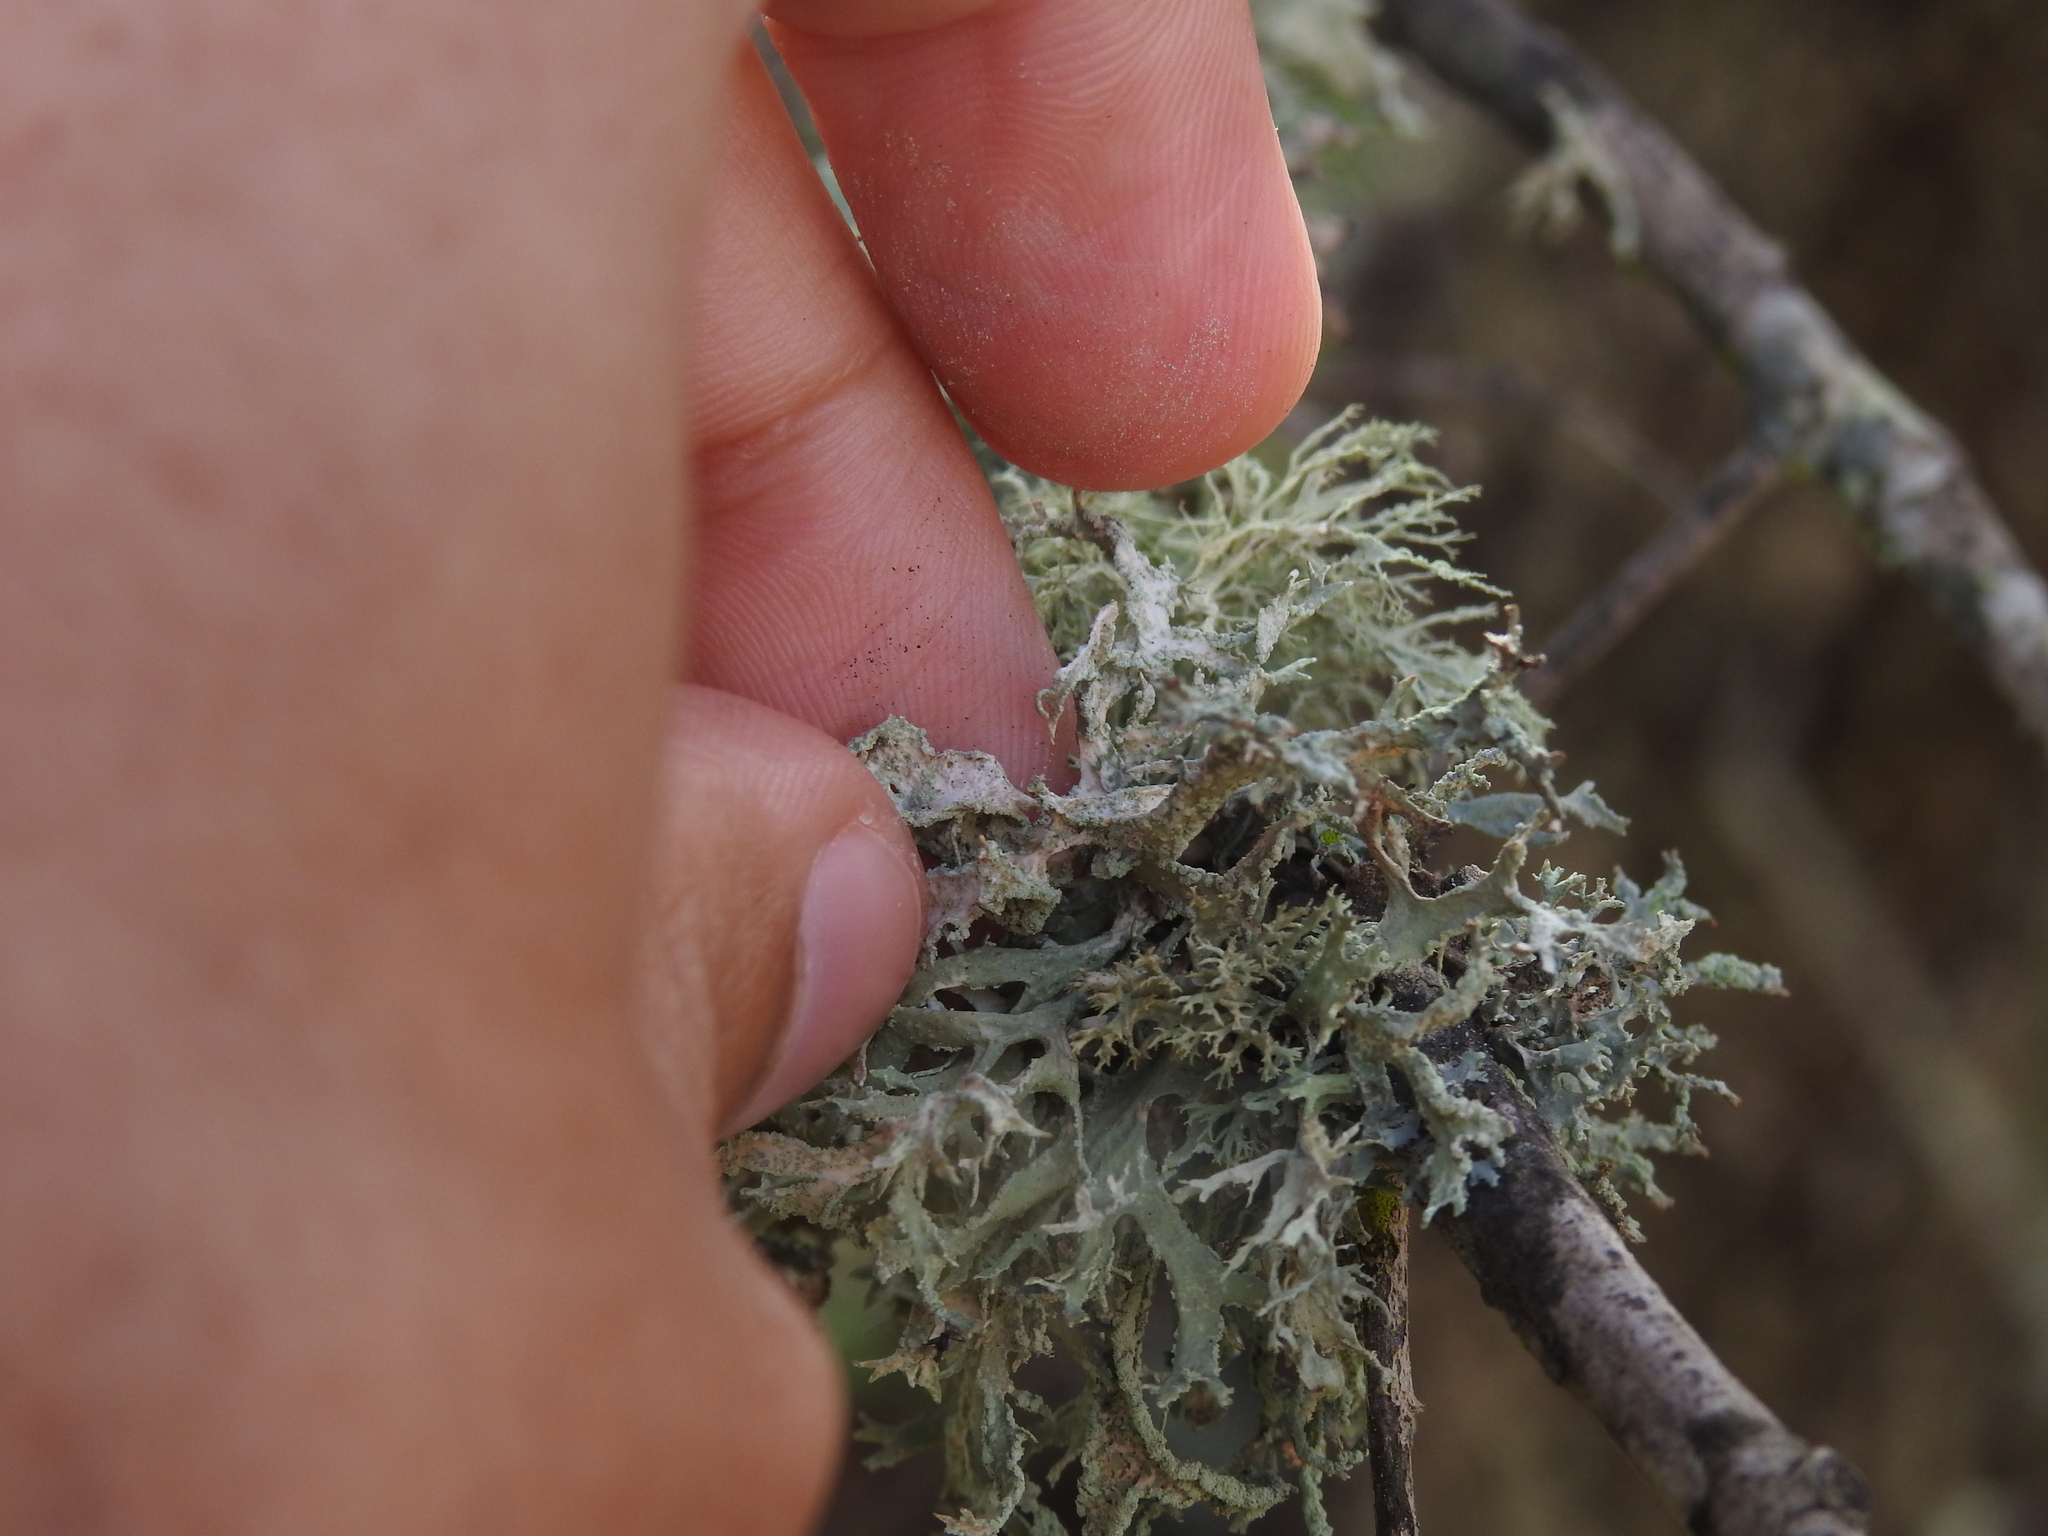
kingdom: Fungi
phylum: Ascomycota
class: Lecanoromycetes
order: Lecanorales
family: Parmeliaceae
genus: Evernia
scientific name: Evernia prunastri
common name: Oak moss
